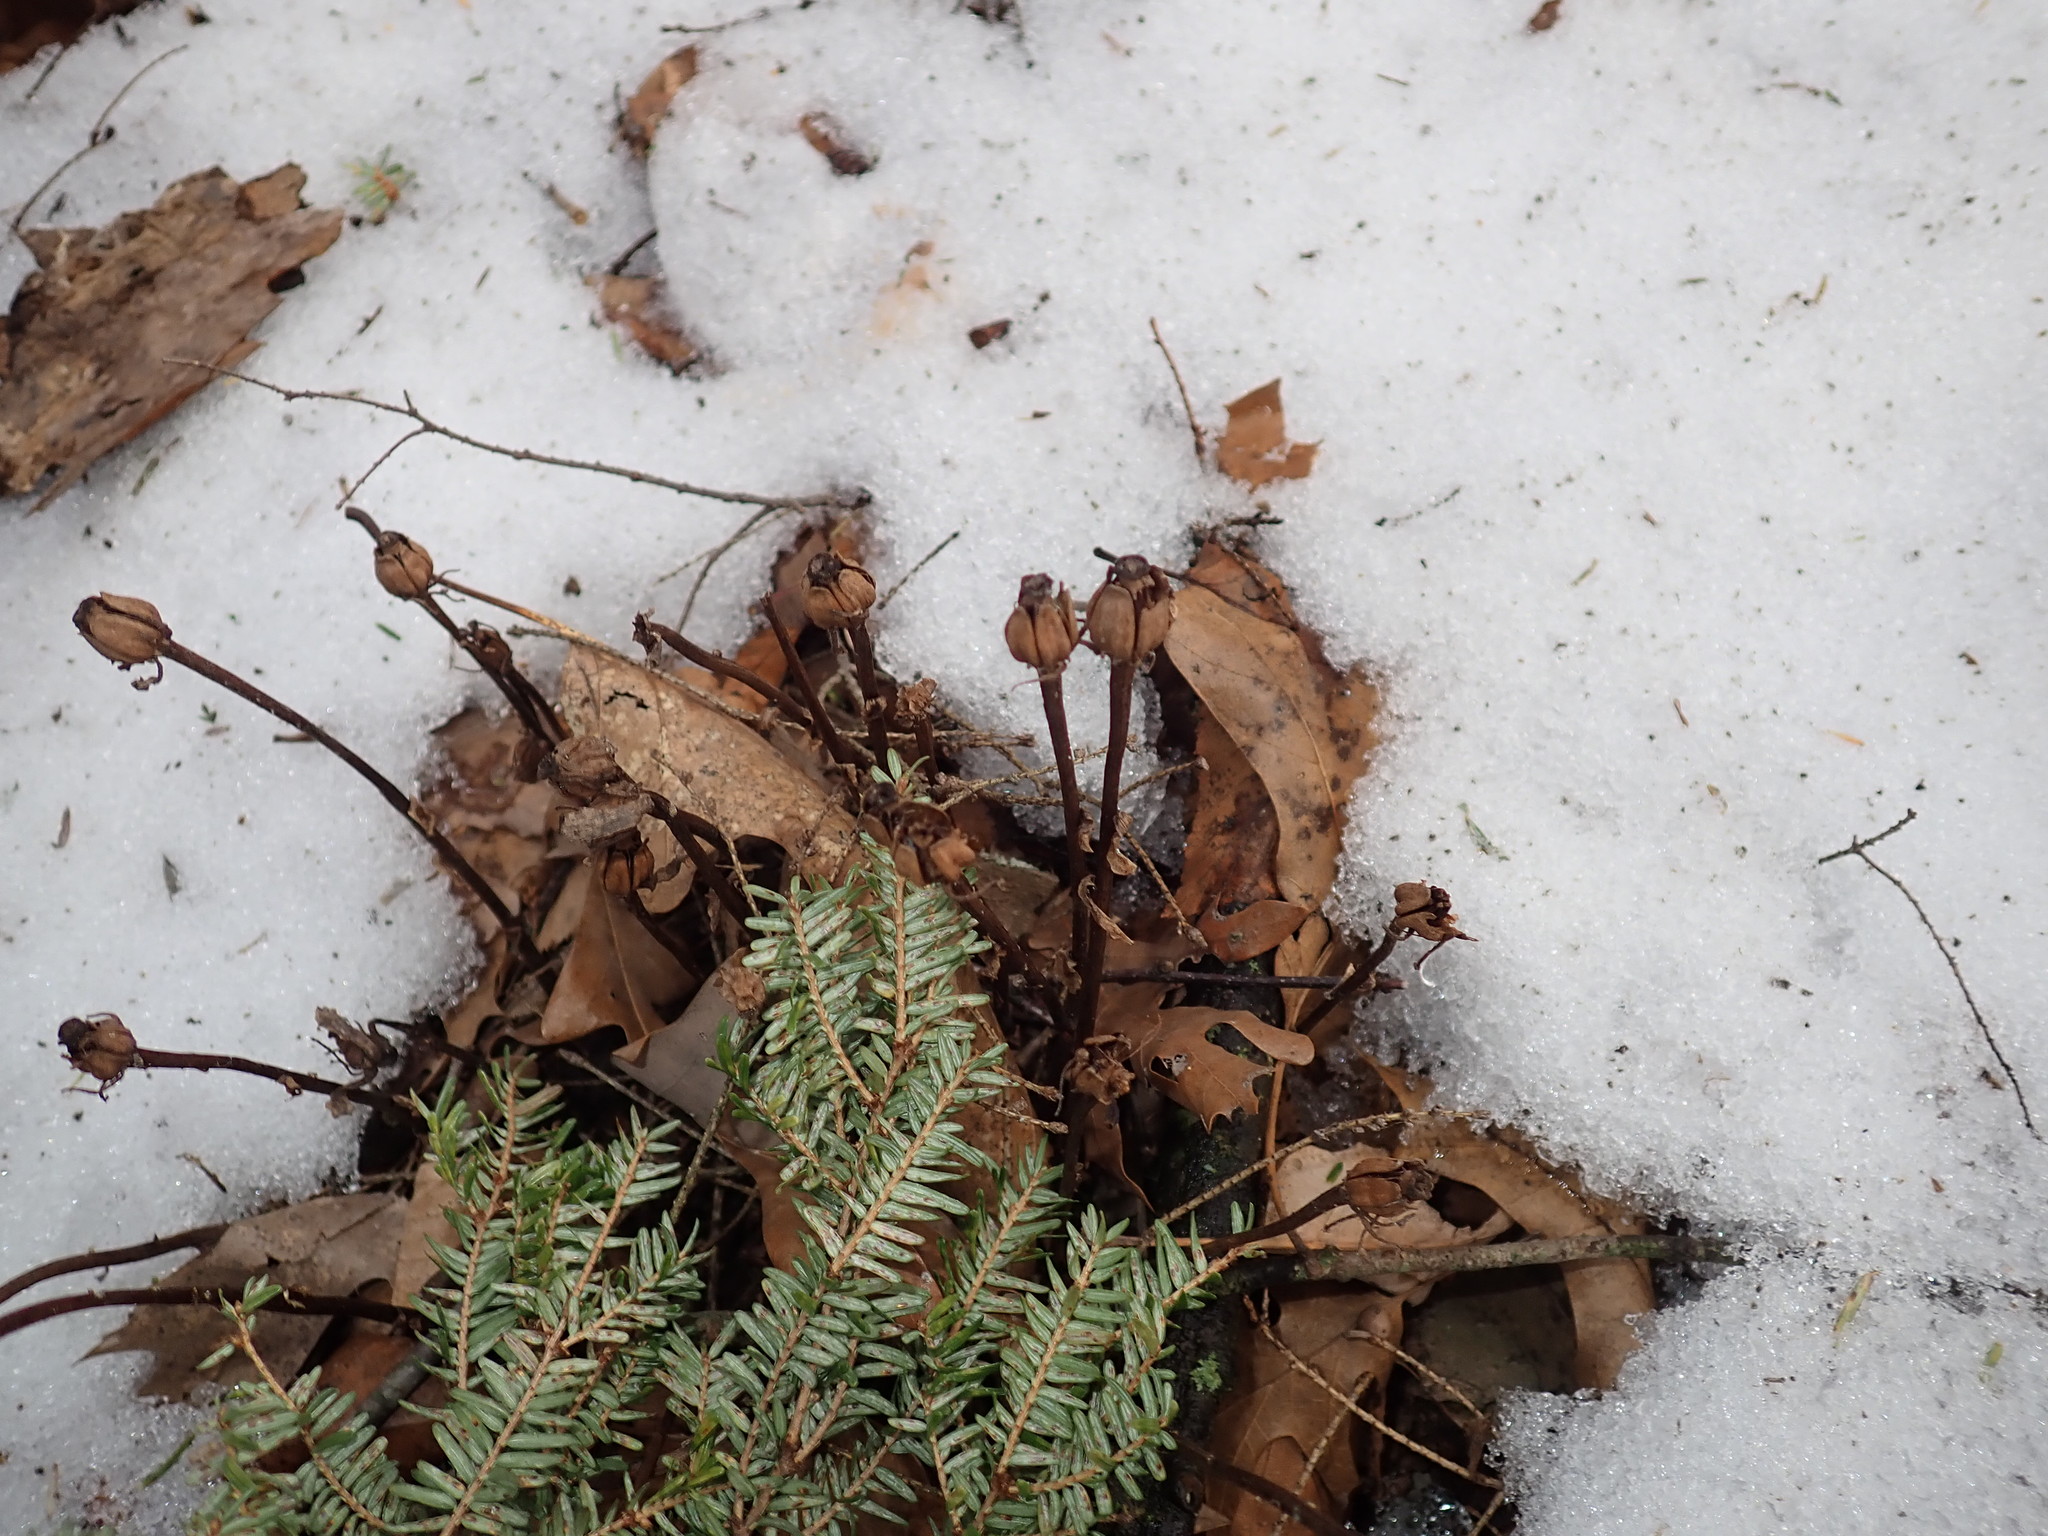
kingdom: Plantae
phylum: Tracheophyta
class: Magnoliopsida
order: Ericales
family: Ericaceae
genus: Monotropa
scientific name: Monotropa uniflora
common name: Convulsion root
